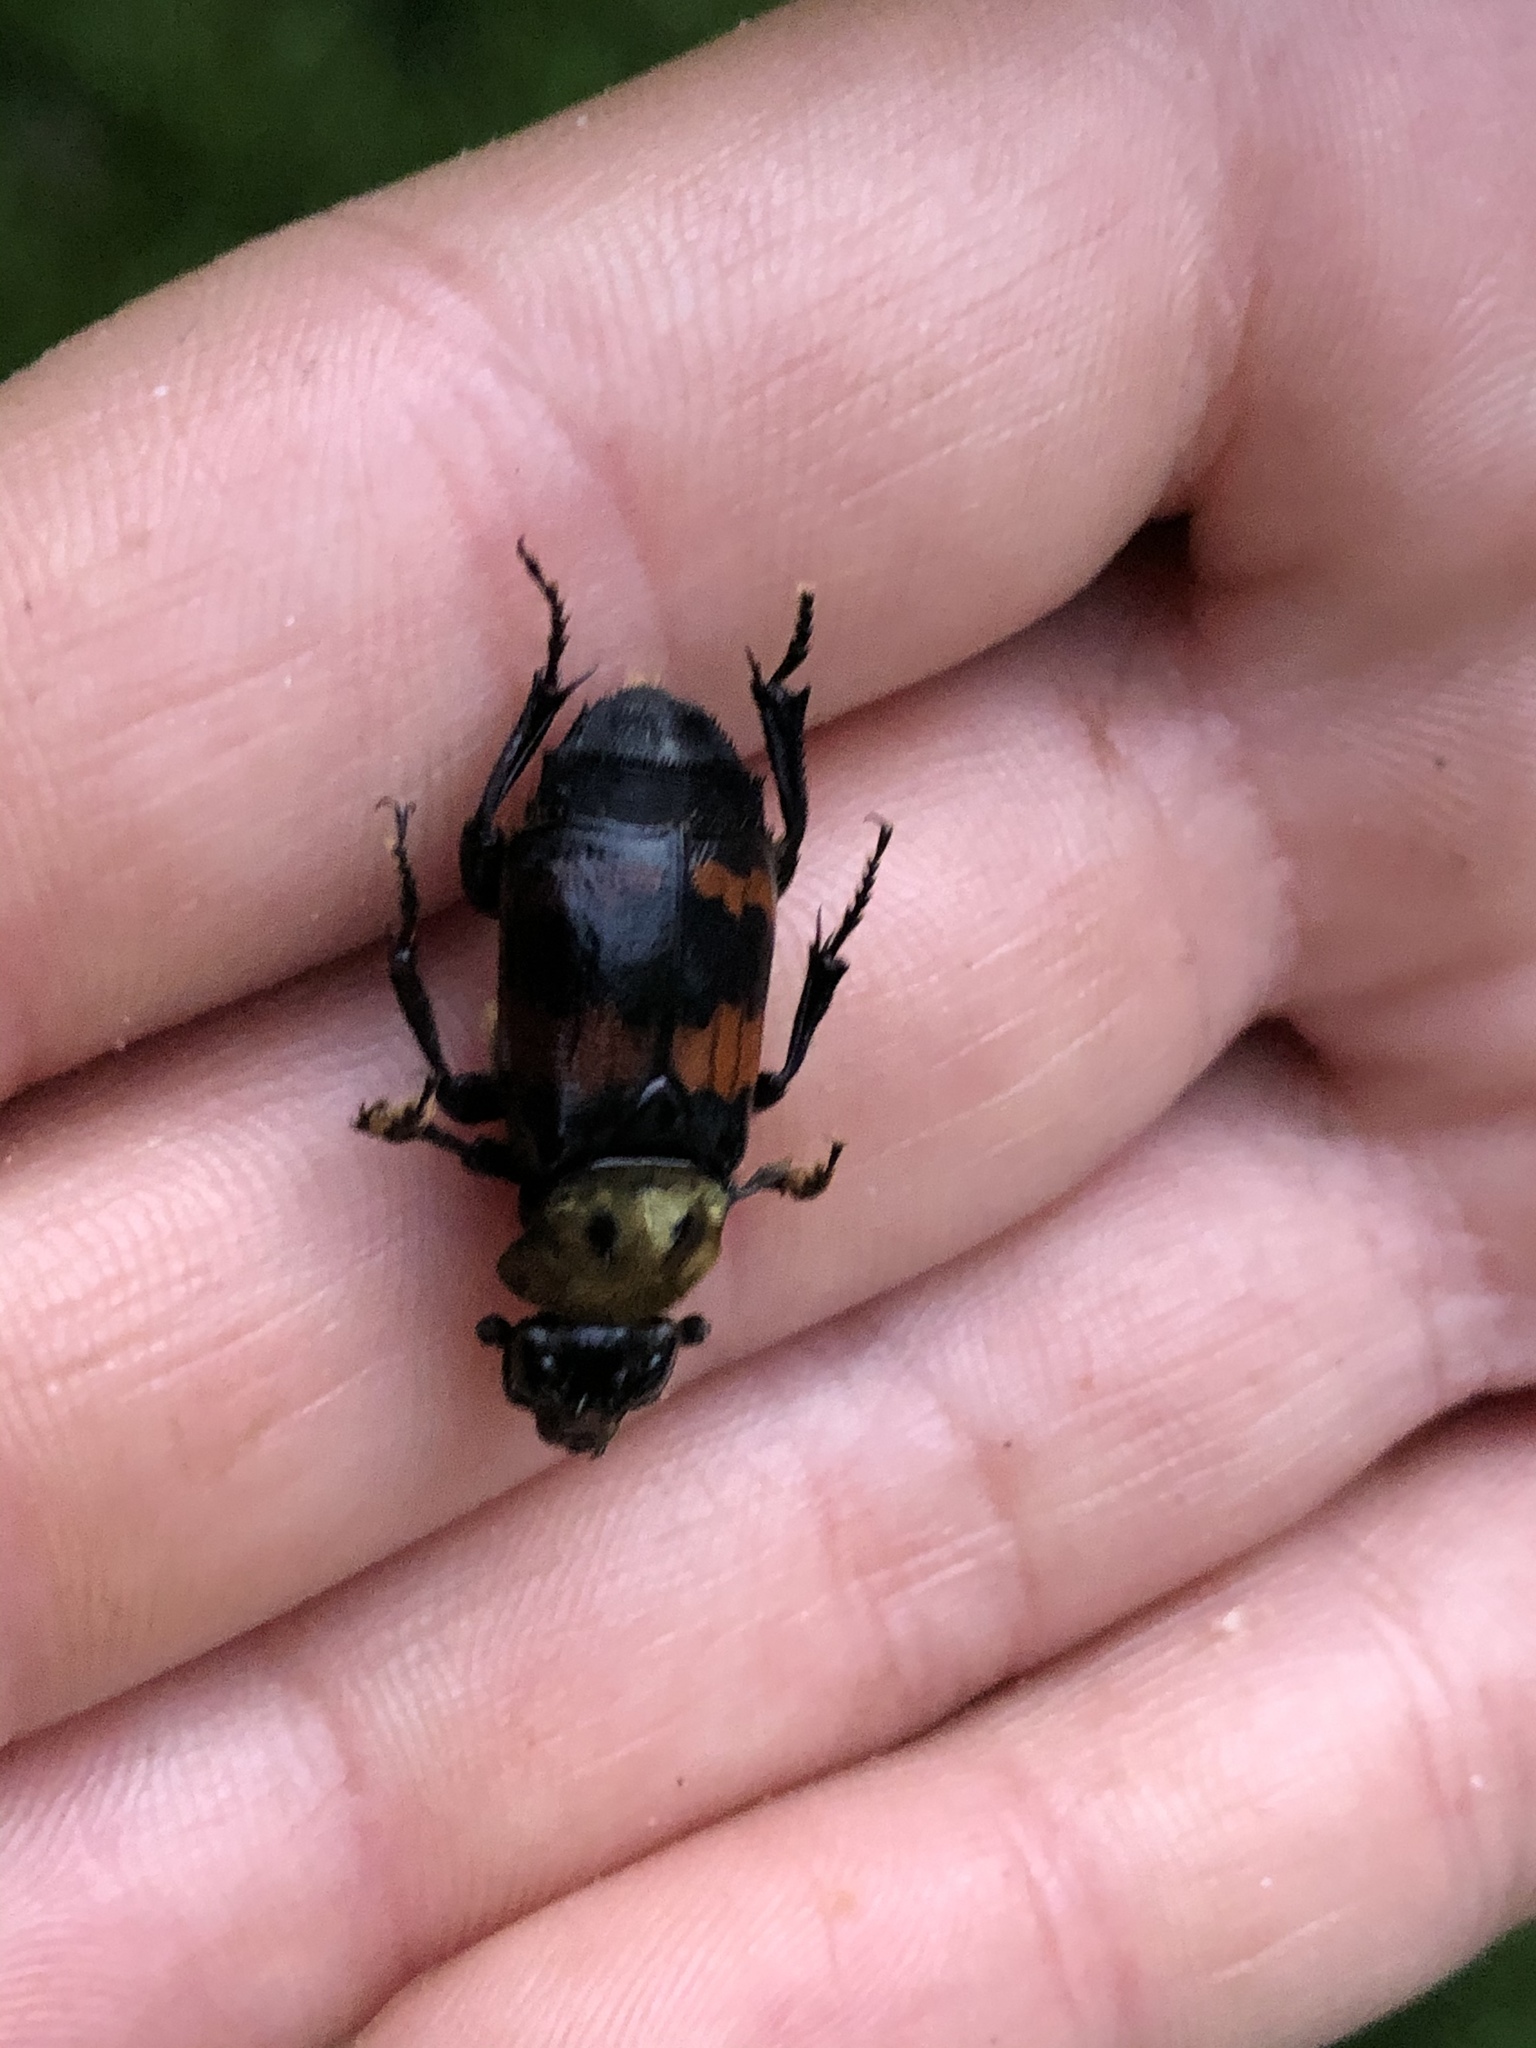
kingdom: Animalia
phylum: Arthropoda
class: Insecta
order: Coleoptera
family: Staphylinidae
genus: Nicrophorus
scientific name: Nicrophorus tomentosus
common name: Tomentose burying beetle
